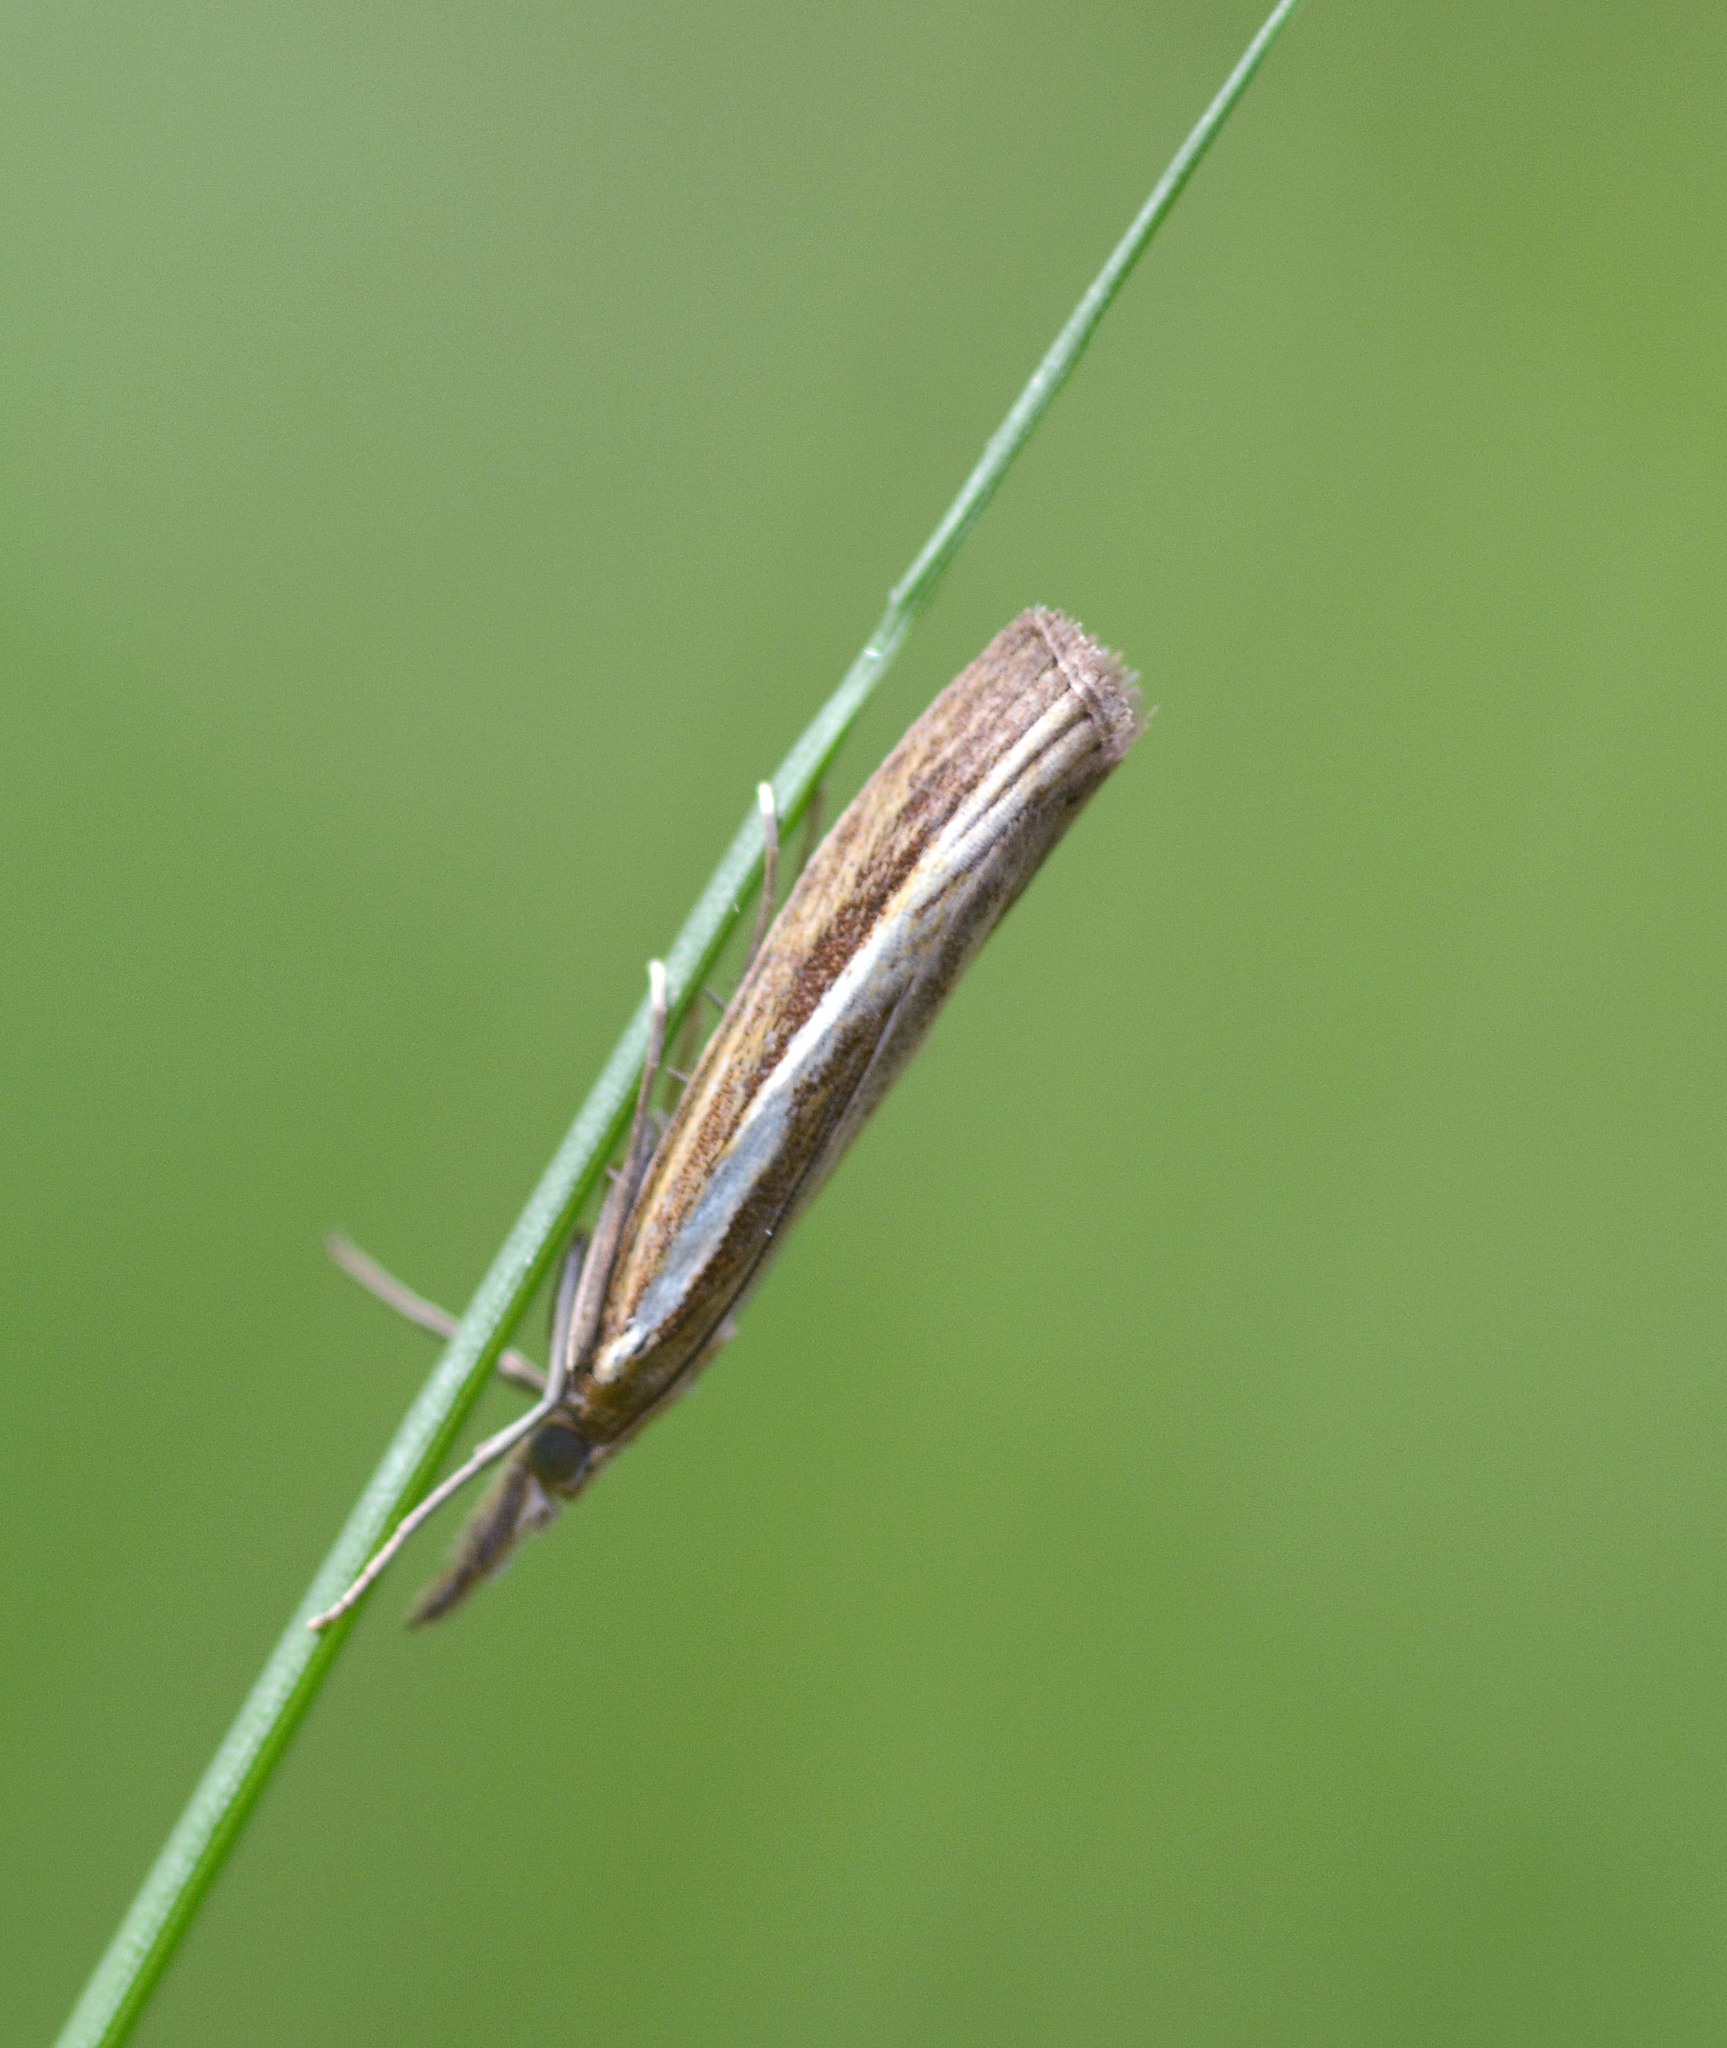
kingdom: Animalia
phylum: Arthropoda
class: Insecta
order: Lepidoptera
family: Crambidae
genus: Agriphila
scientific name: Agriphila tristellus
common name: Common grass-veneer
